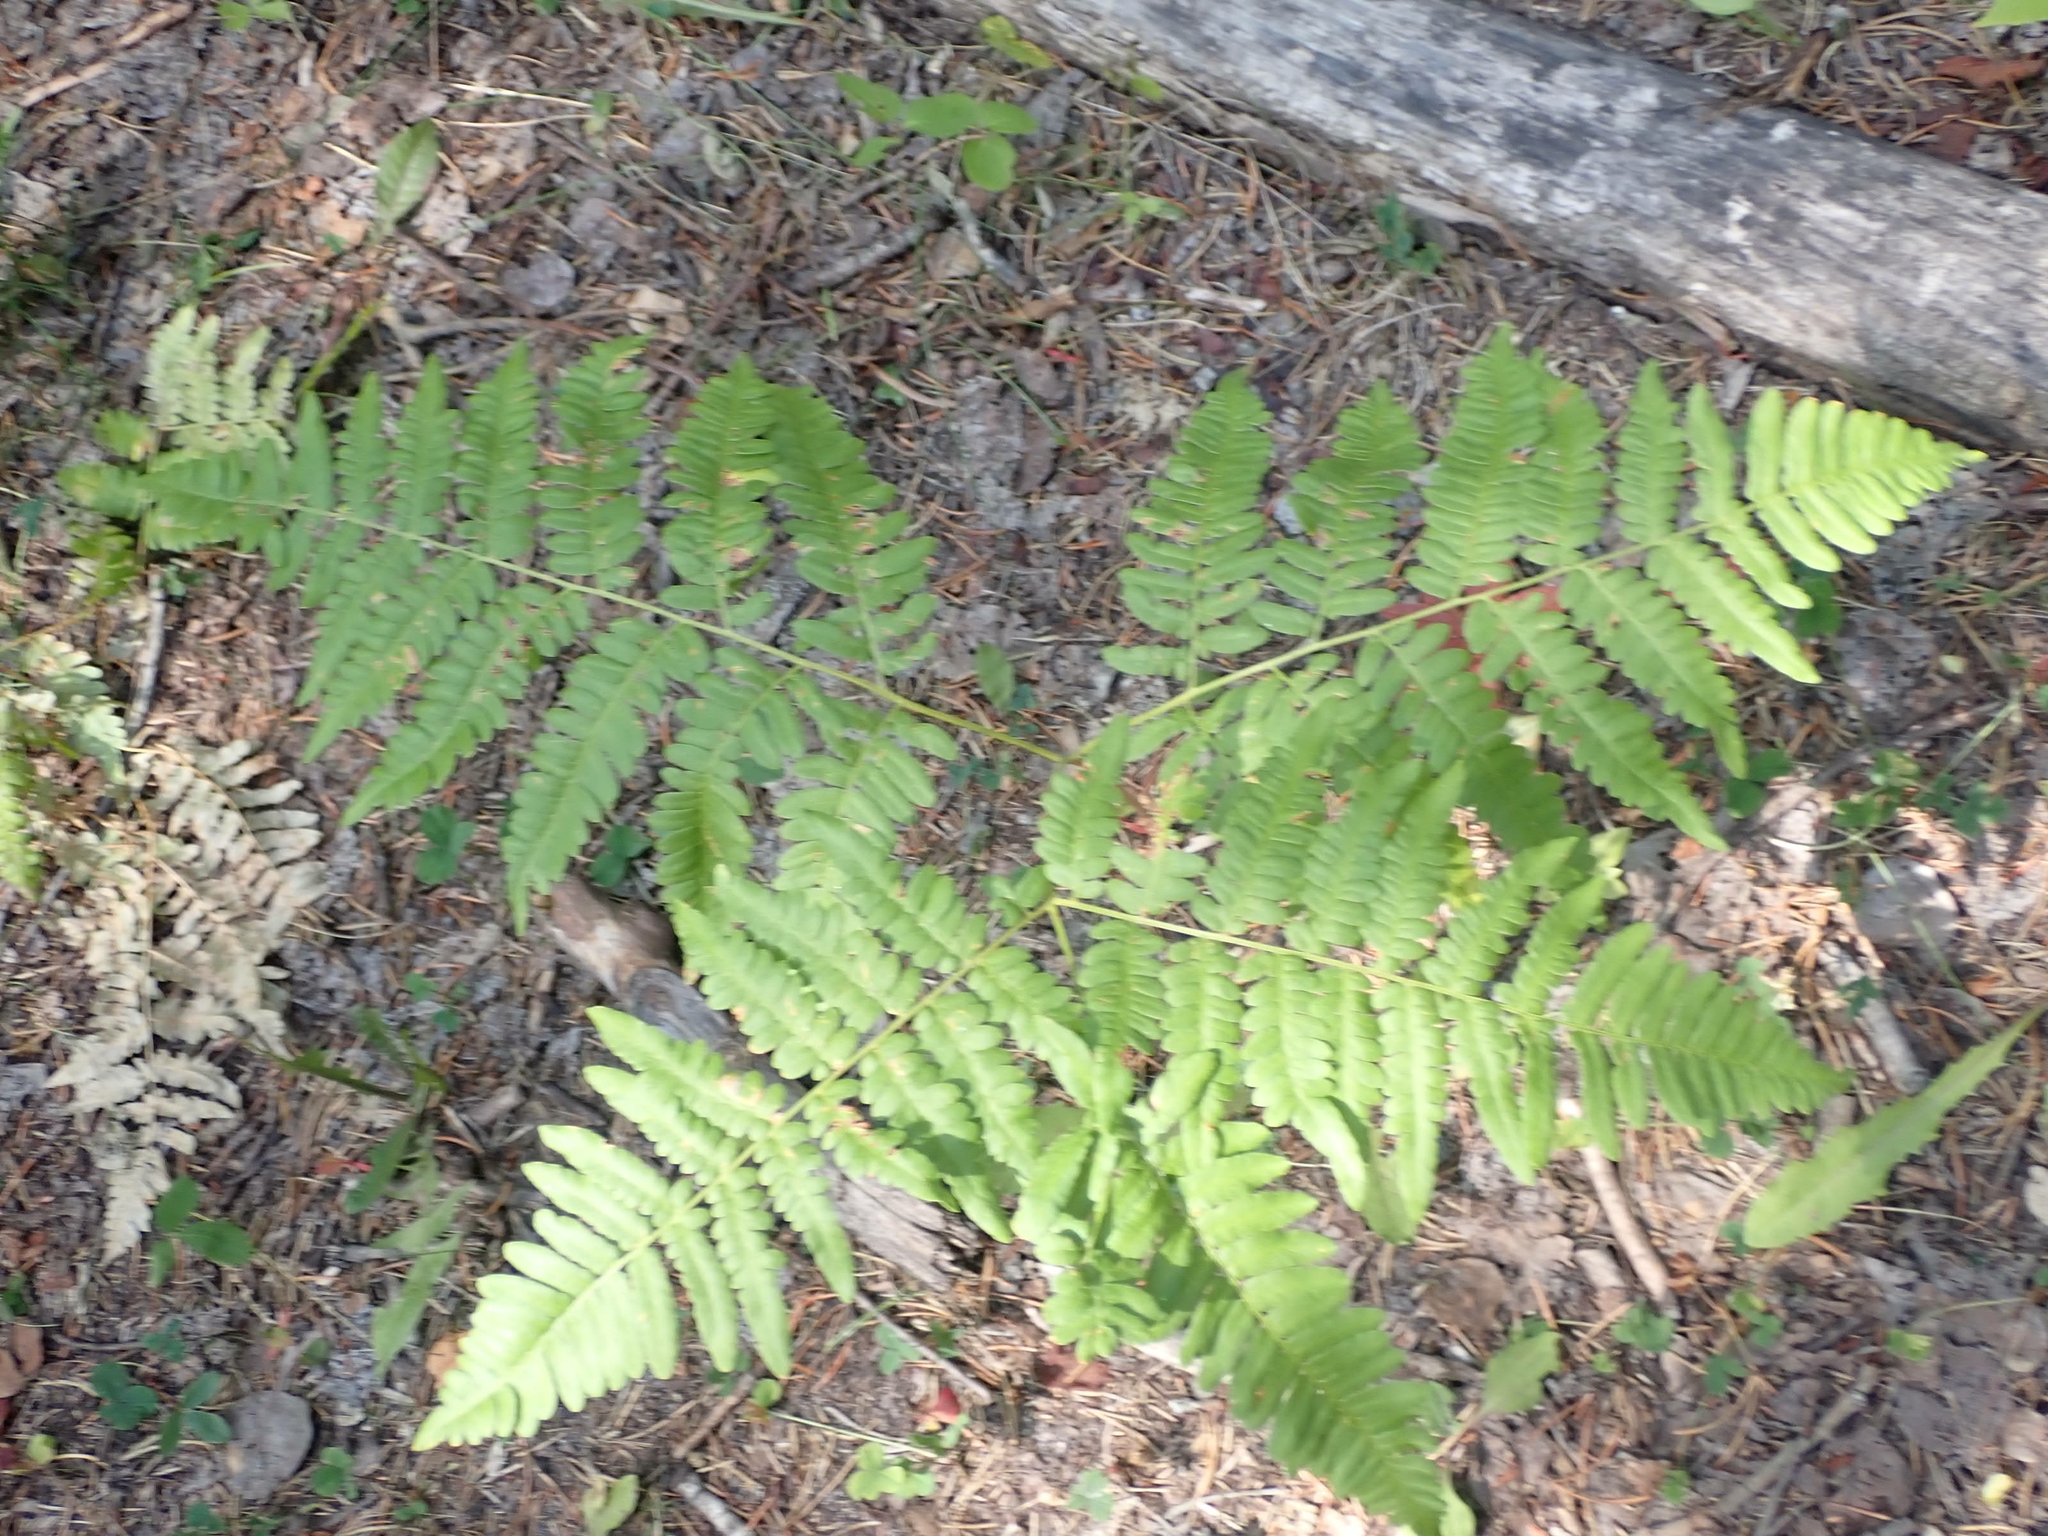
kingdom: Plantae
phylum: Tracheophyta
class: Polypodiopsida
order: Polypodiales
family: Dennstaedtiaceae
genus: Pteridium
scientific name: Pteridium aquilinum
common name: Bracken
